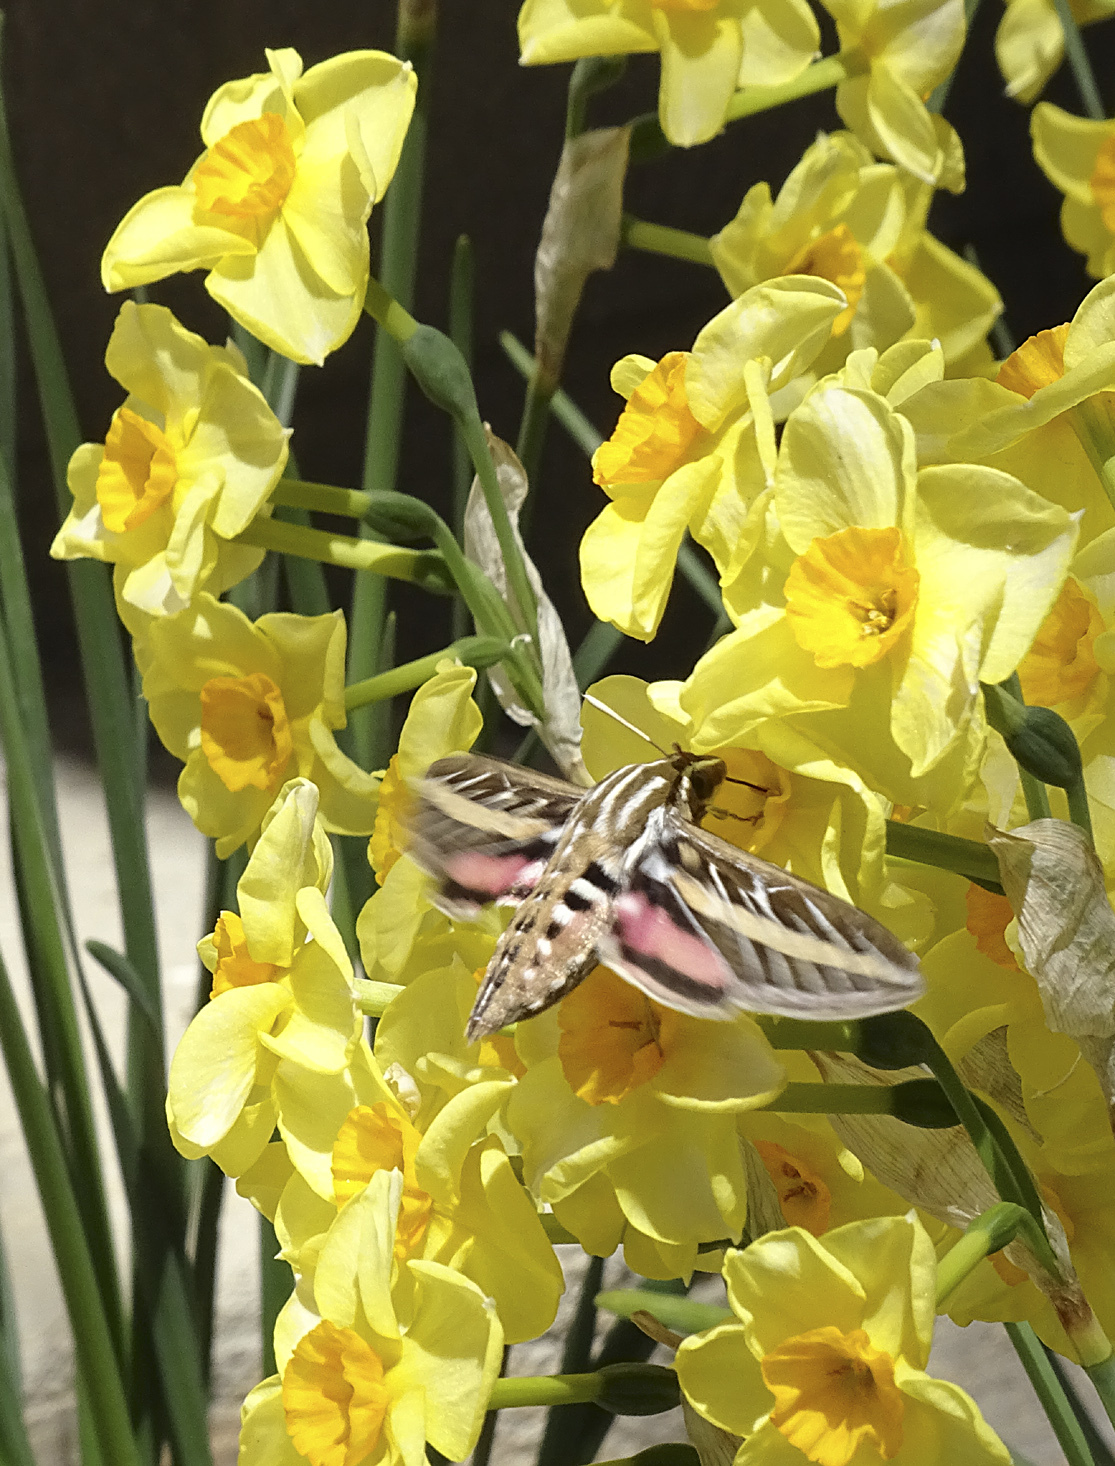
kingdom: Animalia
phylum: Arthropoda
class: Insecta
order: Lepidoptera
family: Sphingidae
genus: Hyles
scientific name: Hyles lineata
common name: White-lined sphinx
